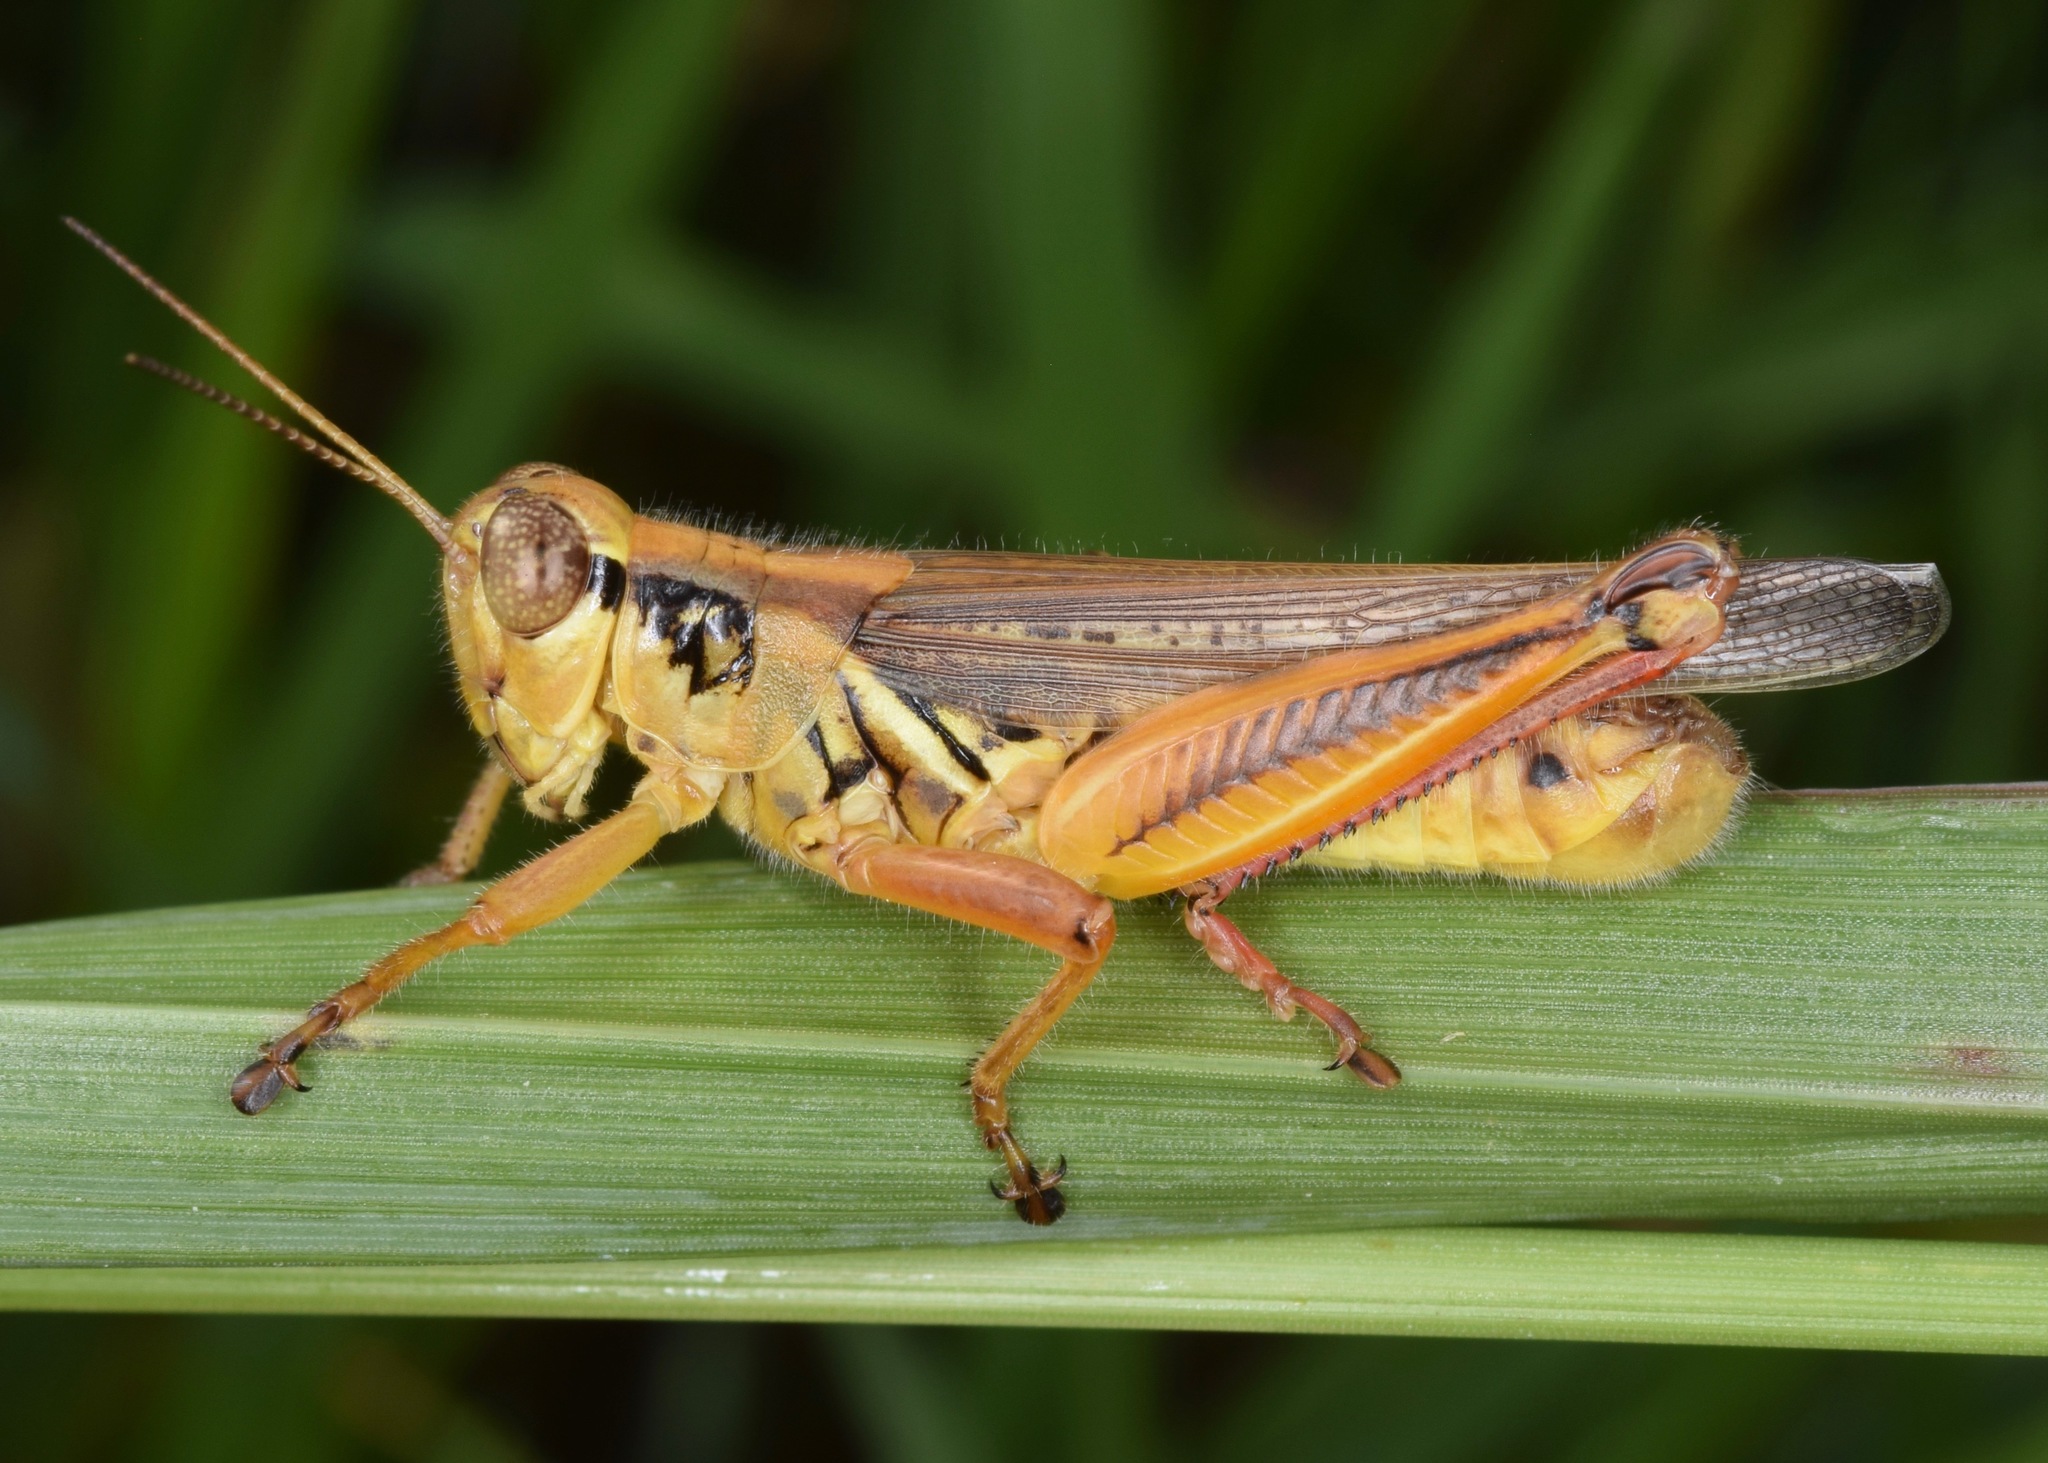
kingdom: Animalia
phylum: Arthropoda
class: Insecta
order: Orthoptera
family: Acrididae
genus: Melanoplus
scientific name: Melanoplus femurrubrum
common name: Red-legged grasshopper
